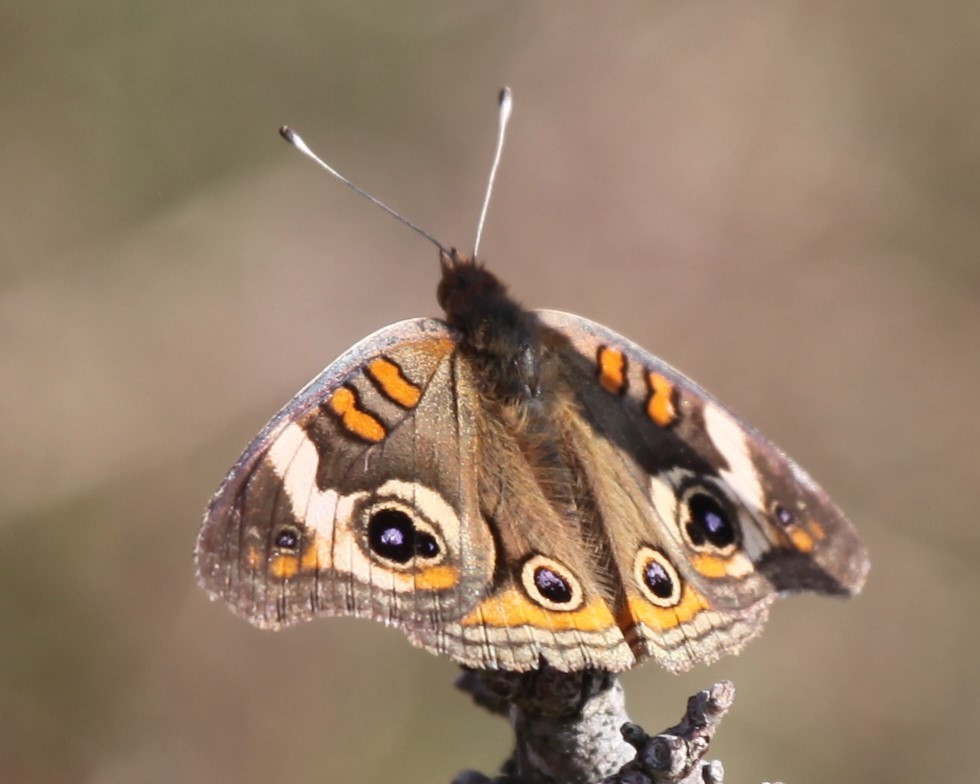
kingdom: Animalia
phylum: Arthropoda
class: Insecta
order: Lepidoptera
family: Nymphalidae
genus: Junonia
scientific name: Junonia coenia
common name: Common buckeye
